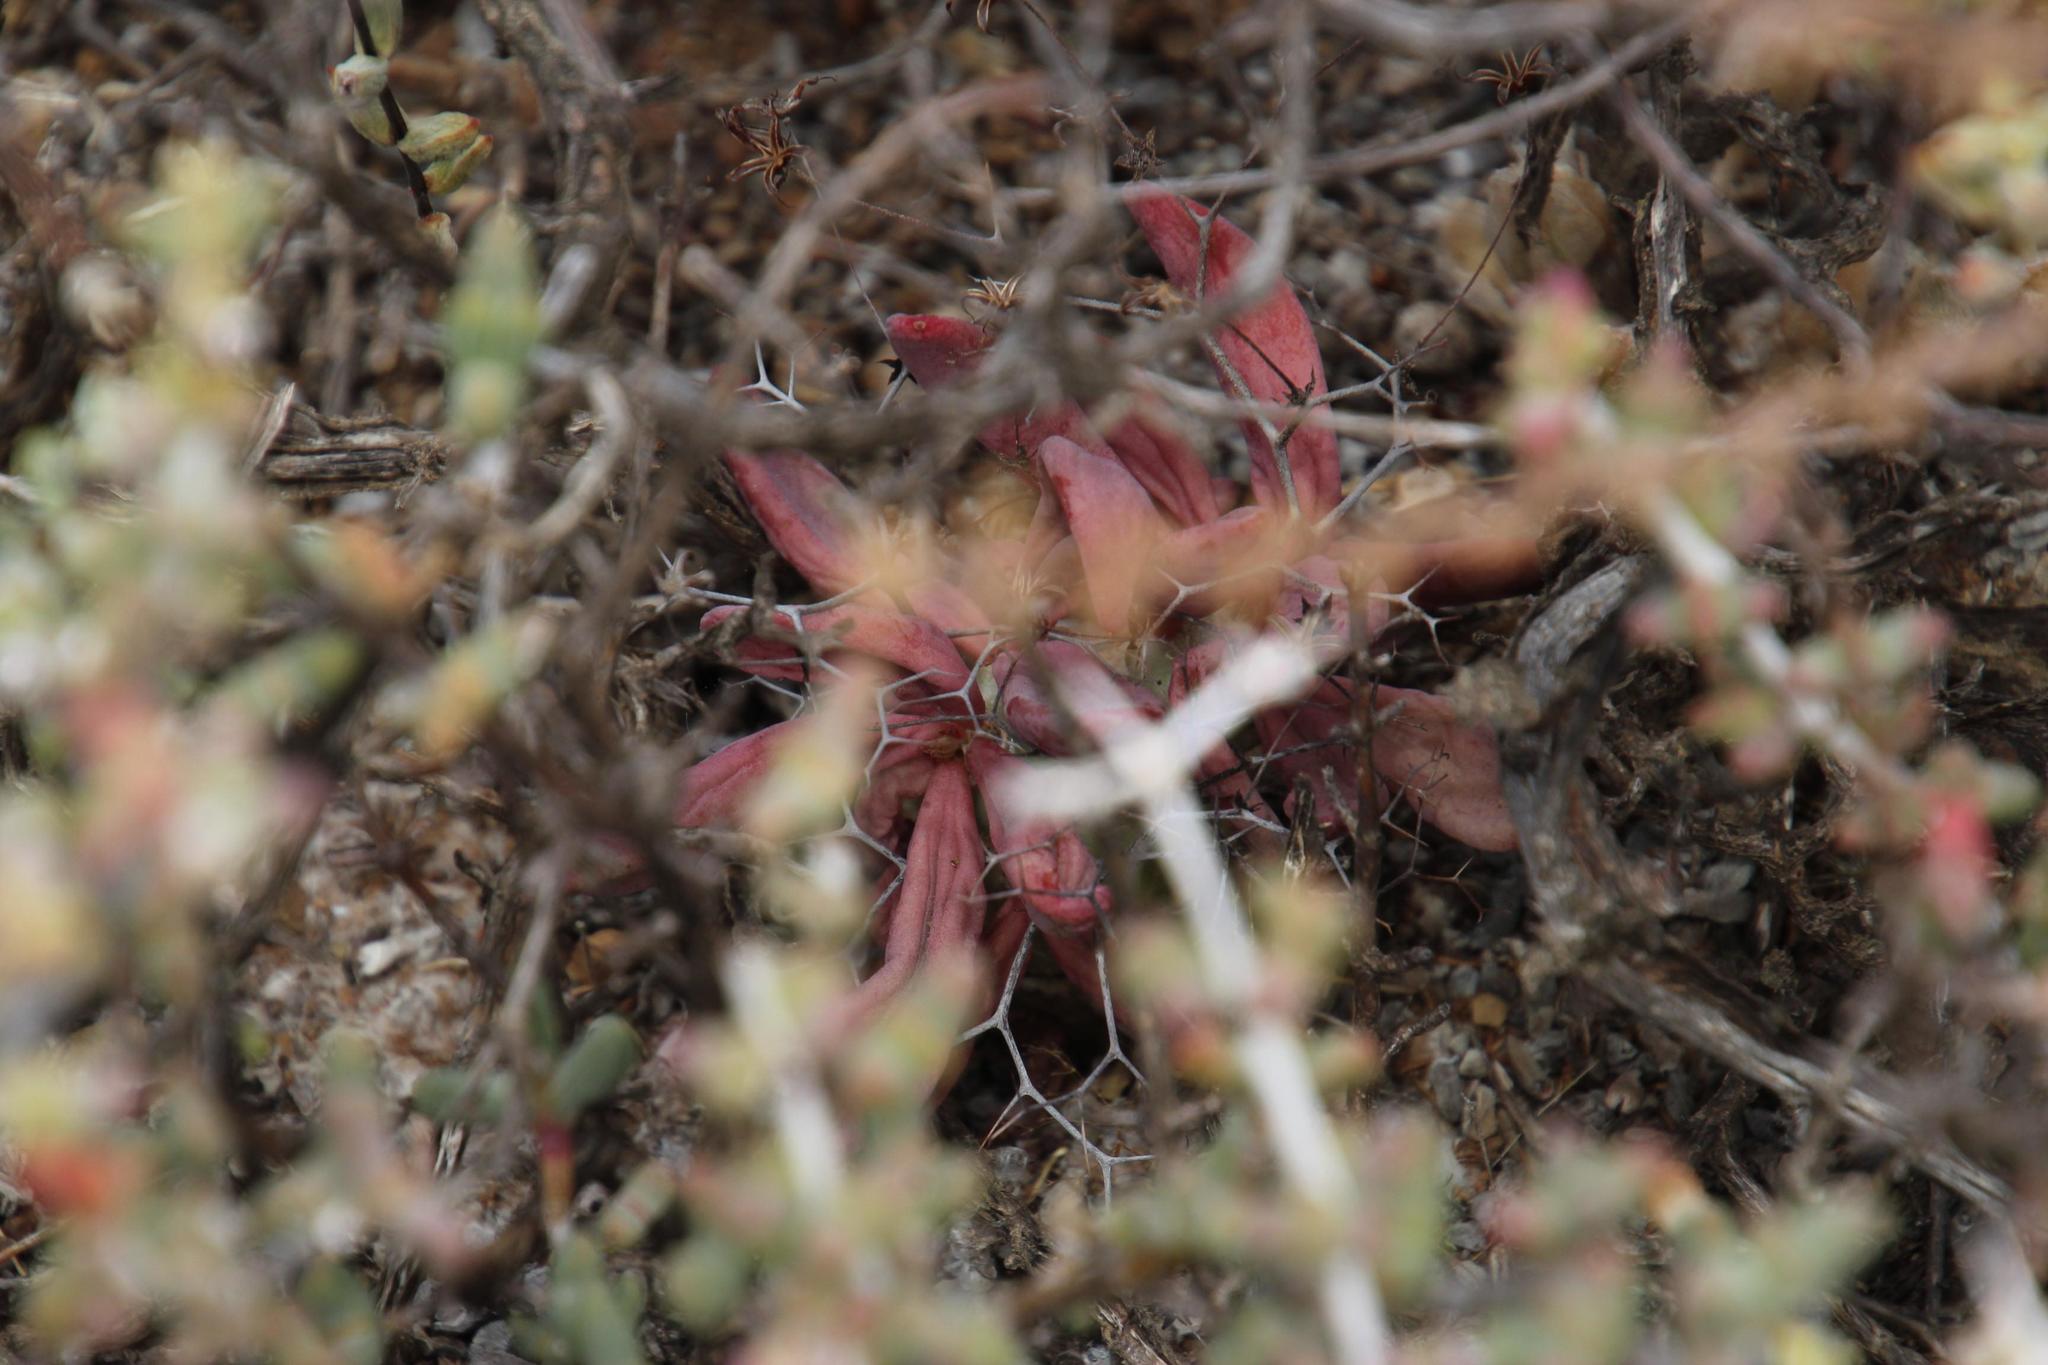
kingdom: Plantae
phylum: Tracheophyta
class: Magnoliopsida
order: Saxifragales
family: Crassulaceae
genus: Tylecodon
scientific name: Tylecodon reticulatus
